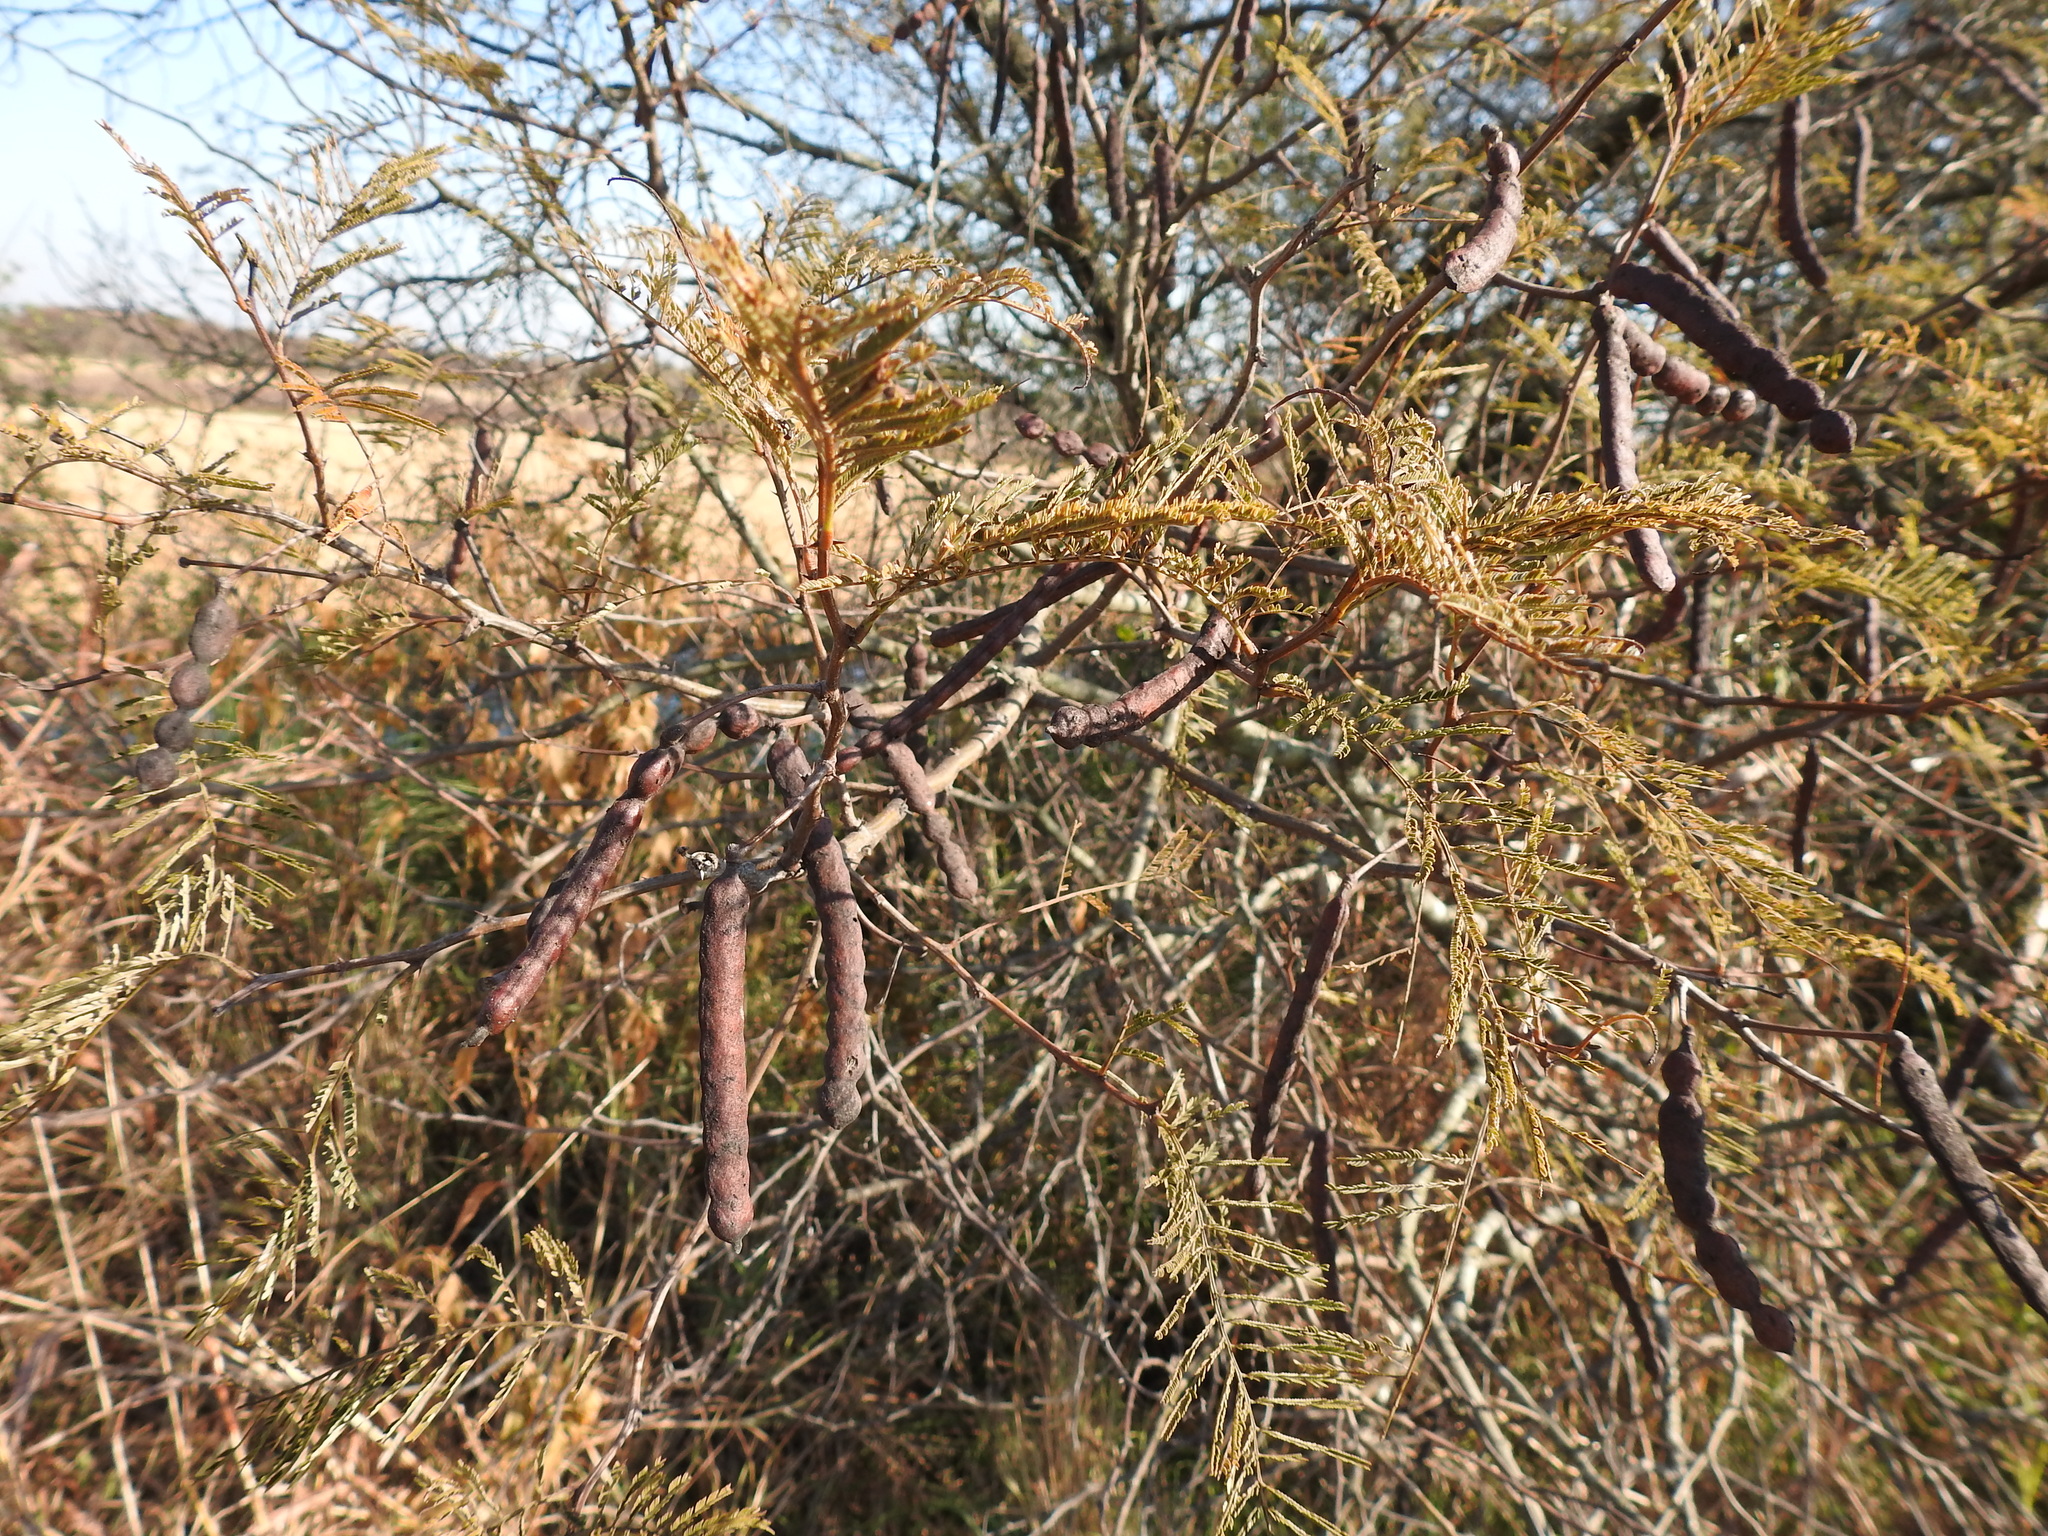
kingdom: Plantae
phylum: Tracheophyta
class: Magnoliopsida
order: Fabales
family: Fabaceae
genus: Vachellia
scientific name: Vachellia aroma
